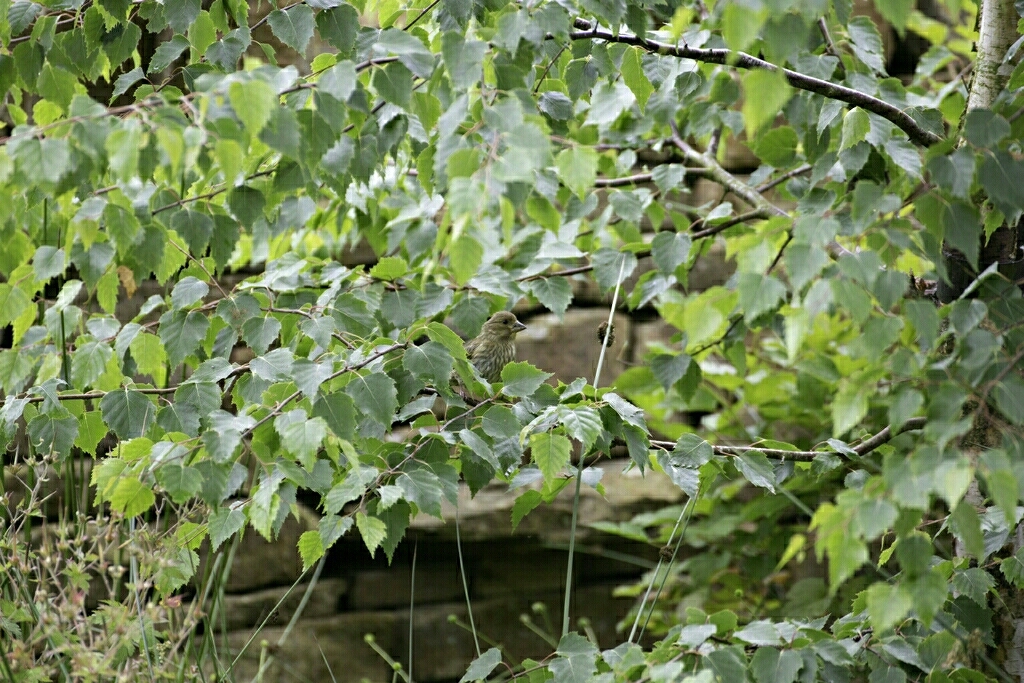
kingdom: Plantae
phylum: Tracheophyta
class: Liliopsida
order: Poales
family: Poaceae
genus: Chloris
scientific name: Chloris chloris
